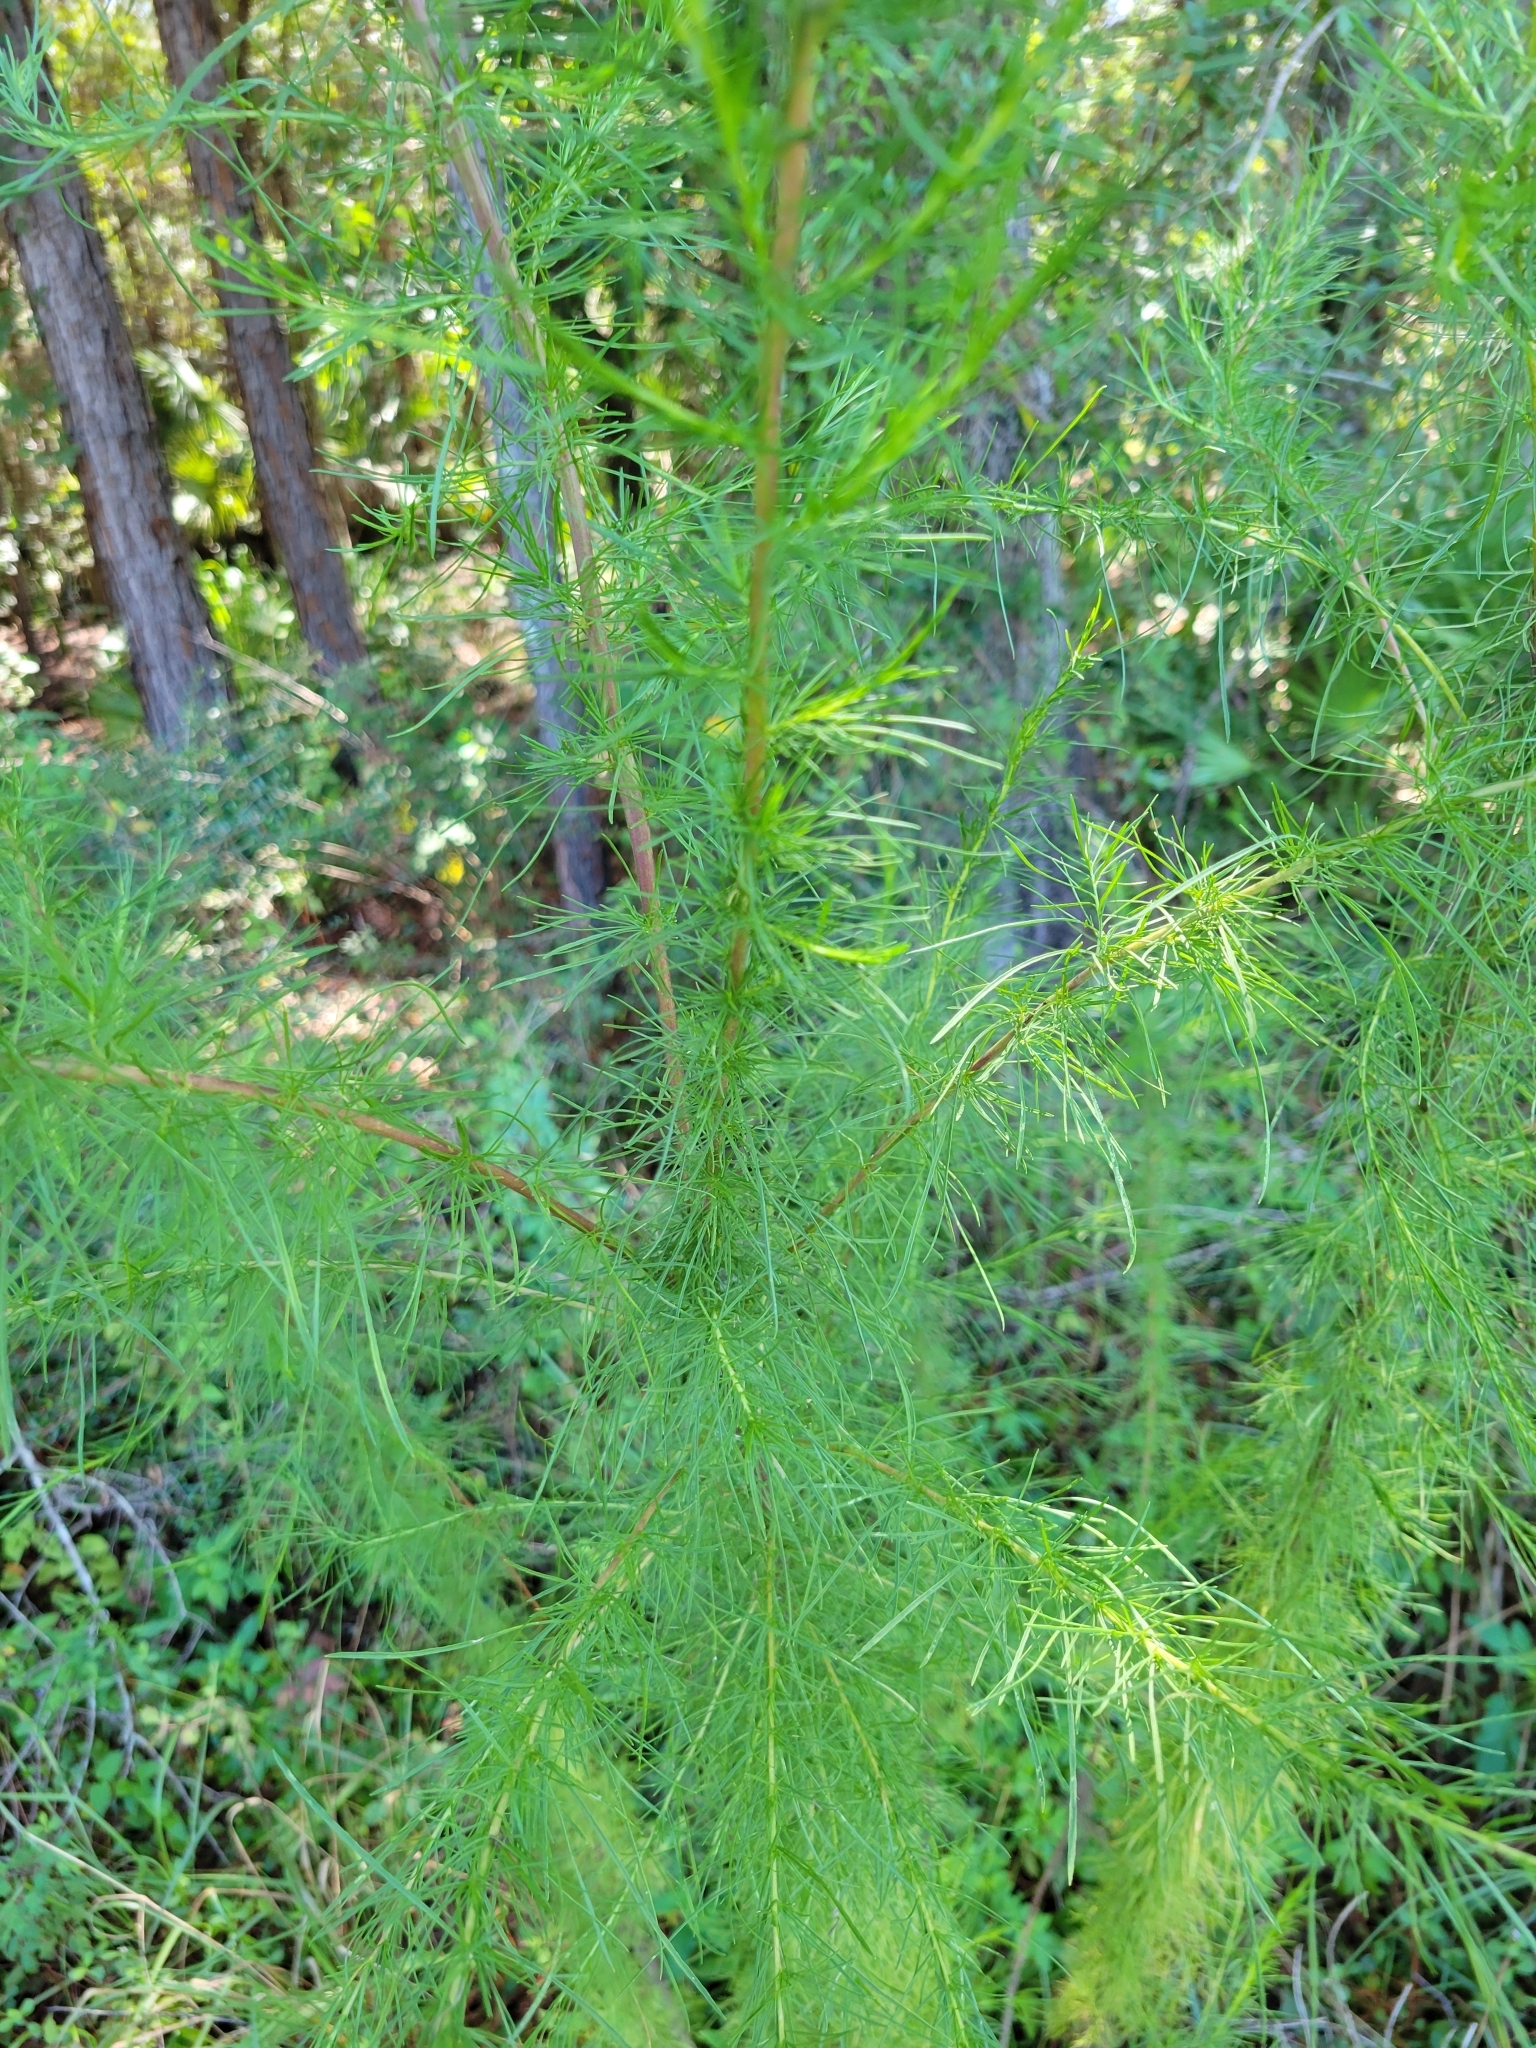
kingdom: Plantae
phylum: Tracheophyta
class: Magnoliopsida
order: Asterales
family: Asteraceae
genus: Eupatorium
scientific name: Eupatorium capillifolium
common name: Dog-fennel
